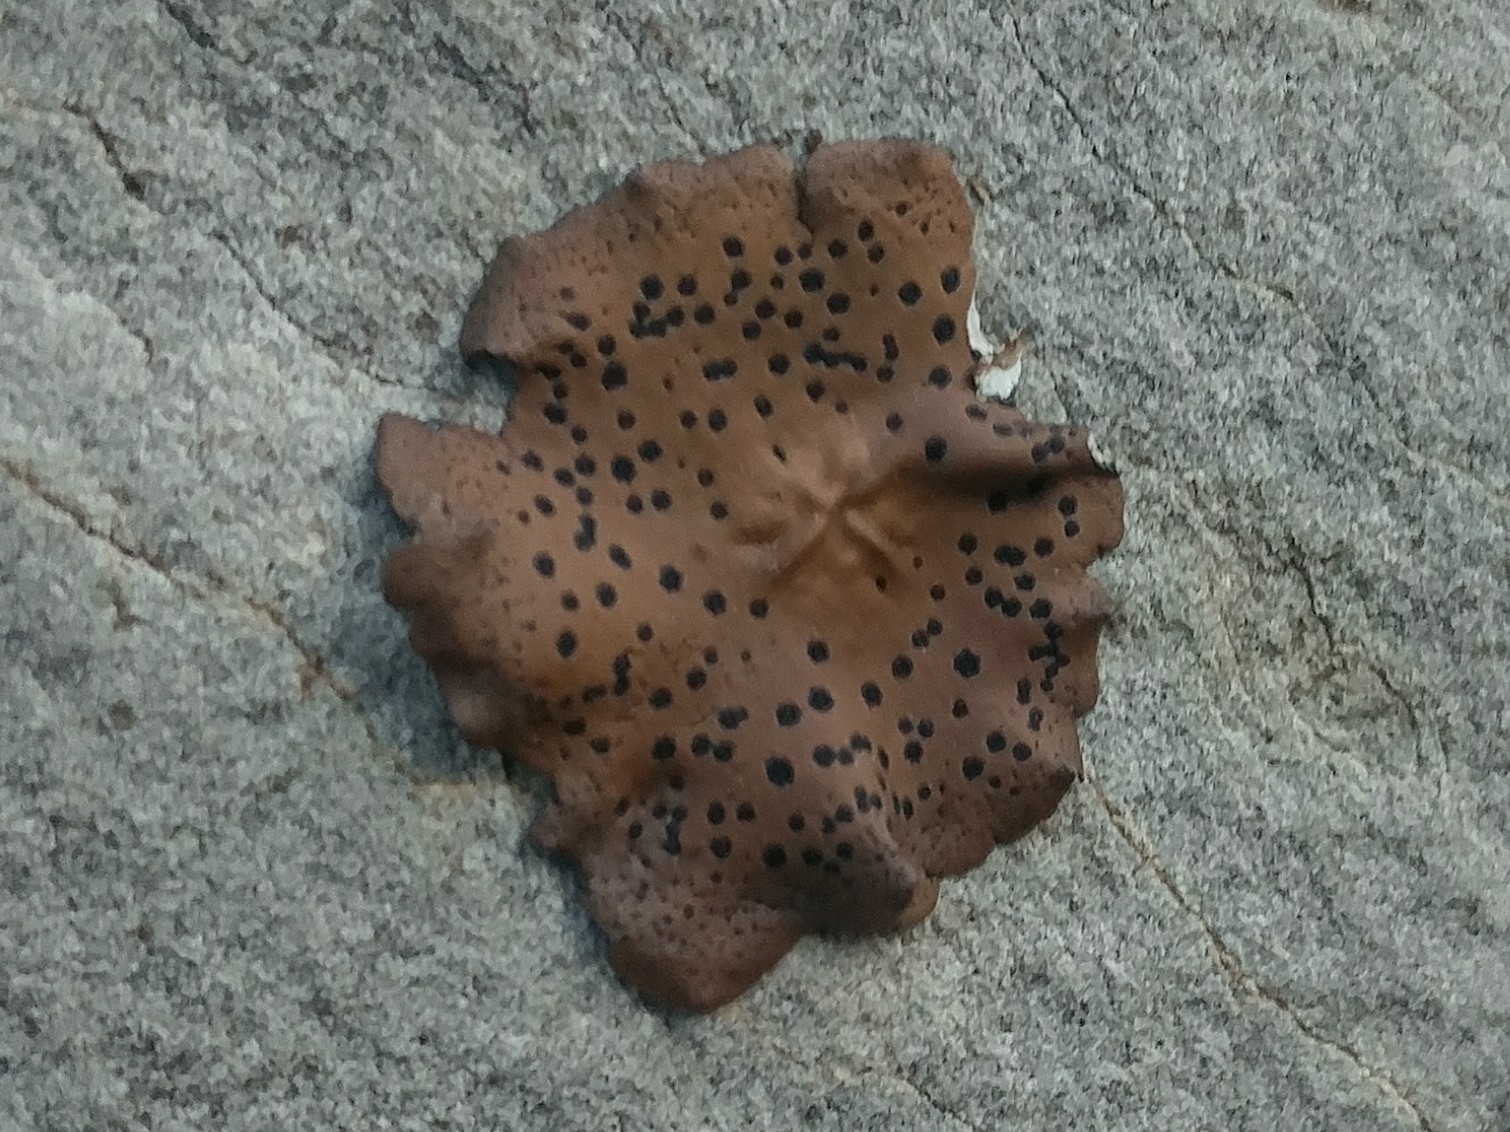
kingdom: Fungi
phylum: Ascomycota
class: Lecanoromycetes
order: Umbilicariales
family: Umbilicariaceae
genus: Umbilicaria
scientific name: Umbilicaria phaea
